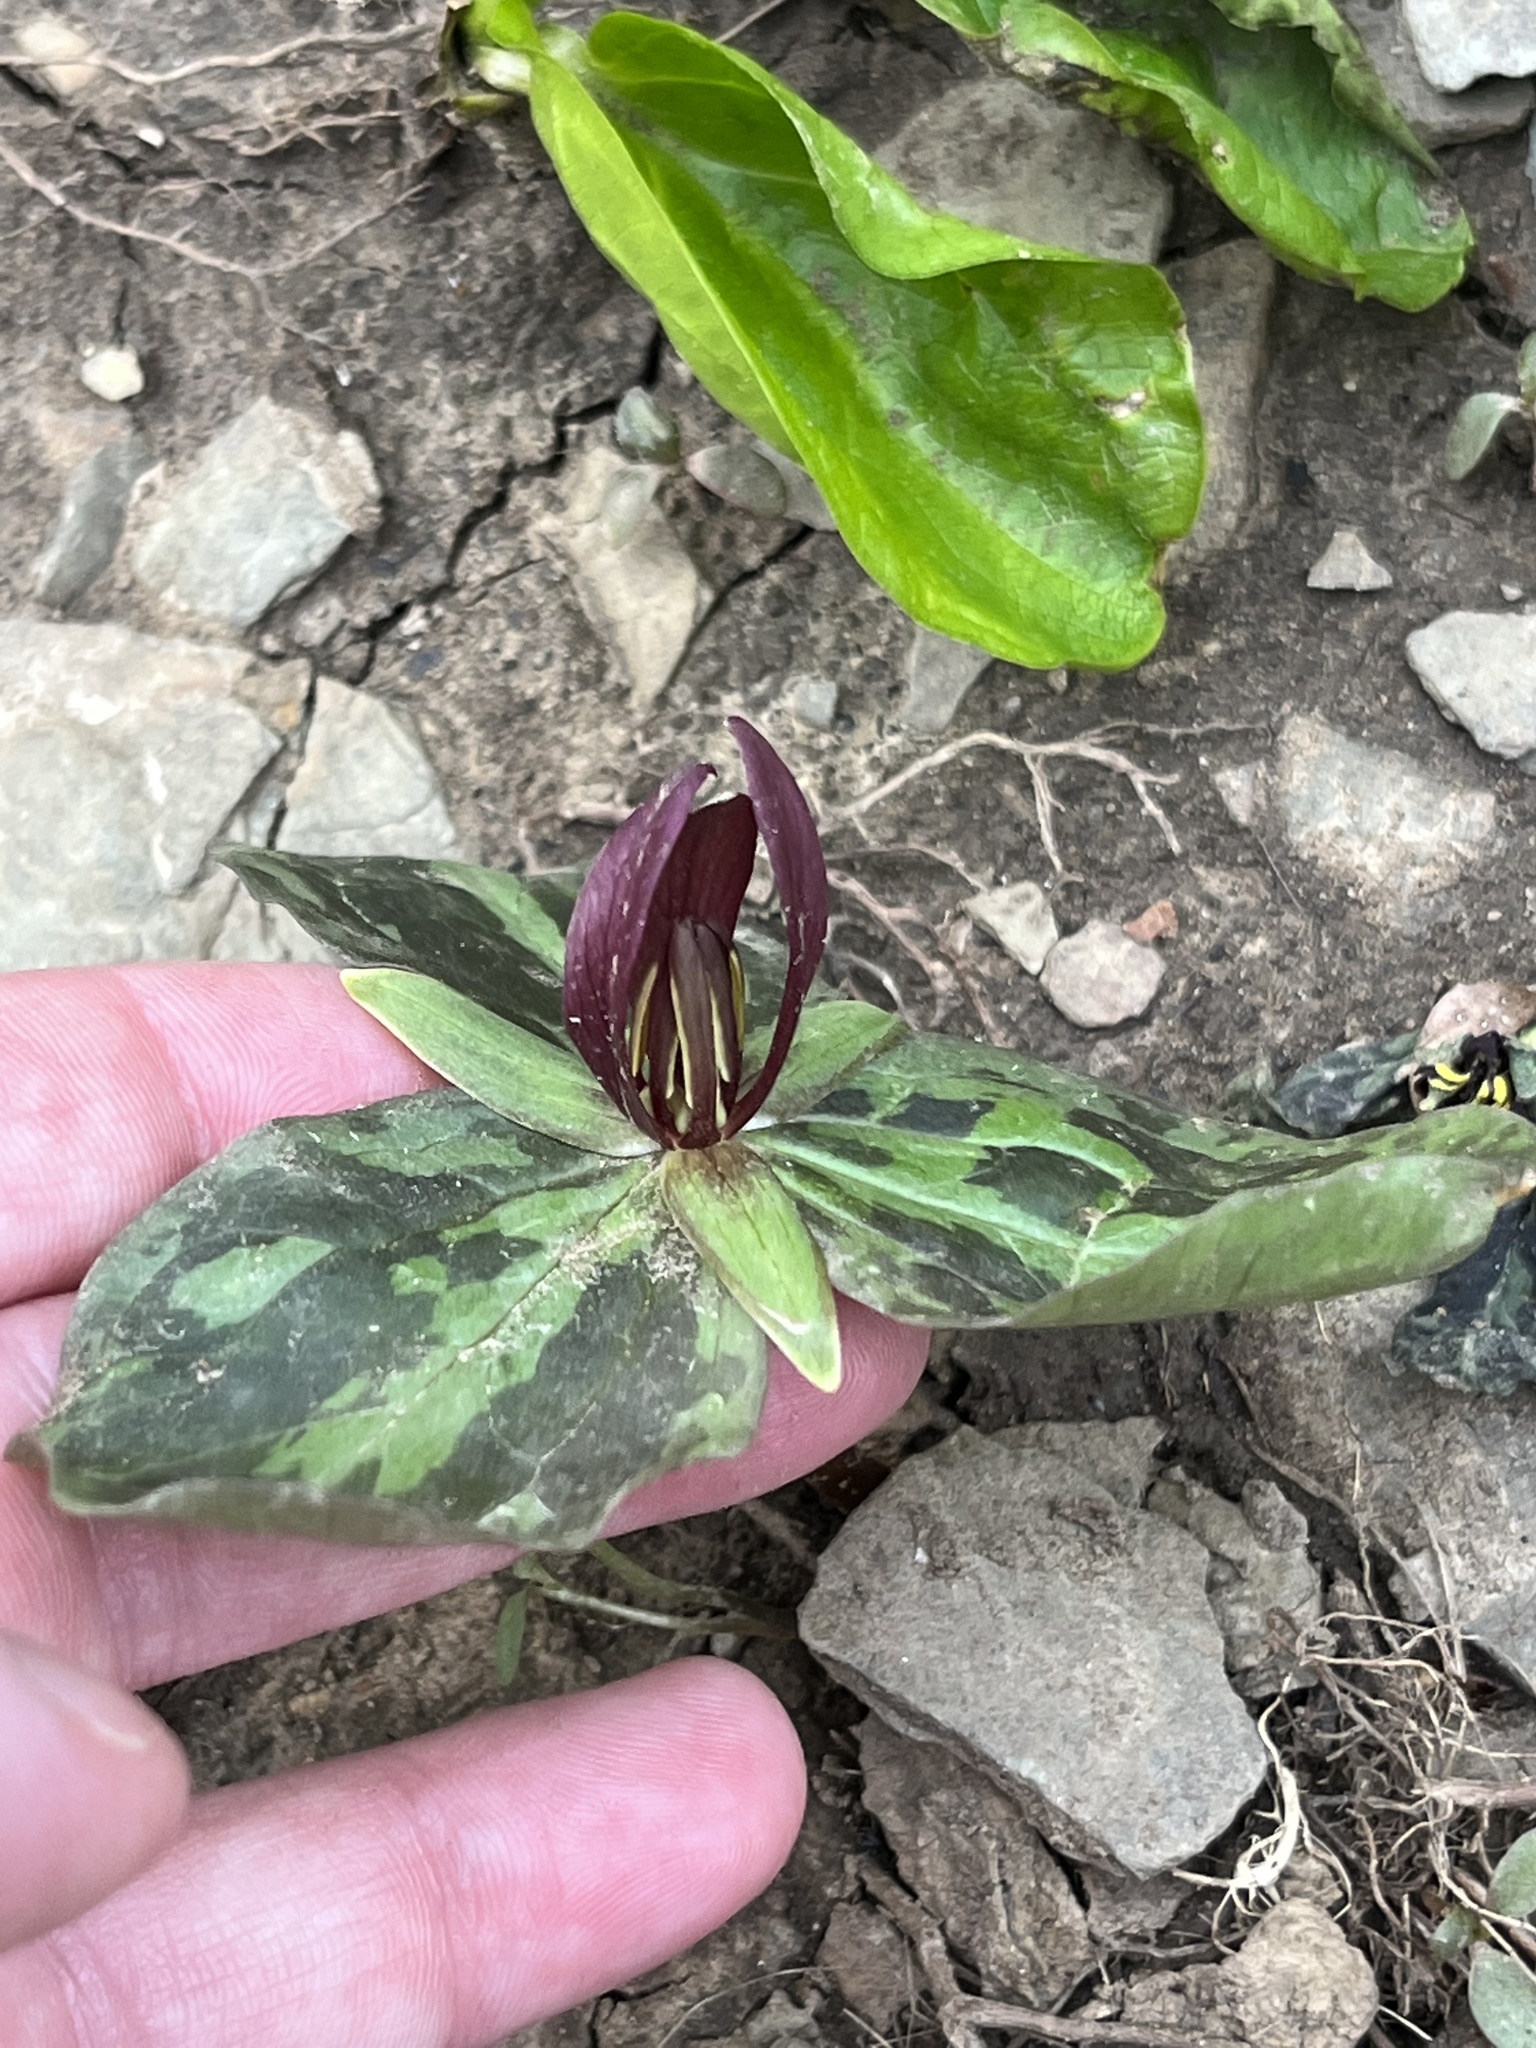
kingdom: Plantae
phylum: Tracheophyta
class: Liliopsida
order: Liliales
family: Melanthiaceae
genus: Trillium
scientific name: Trillium sessile
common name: Sessile trillium
